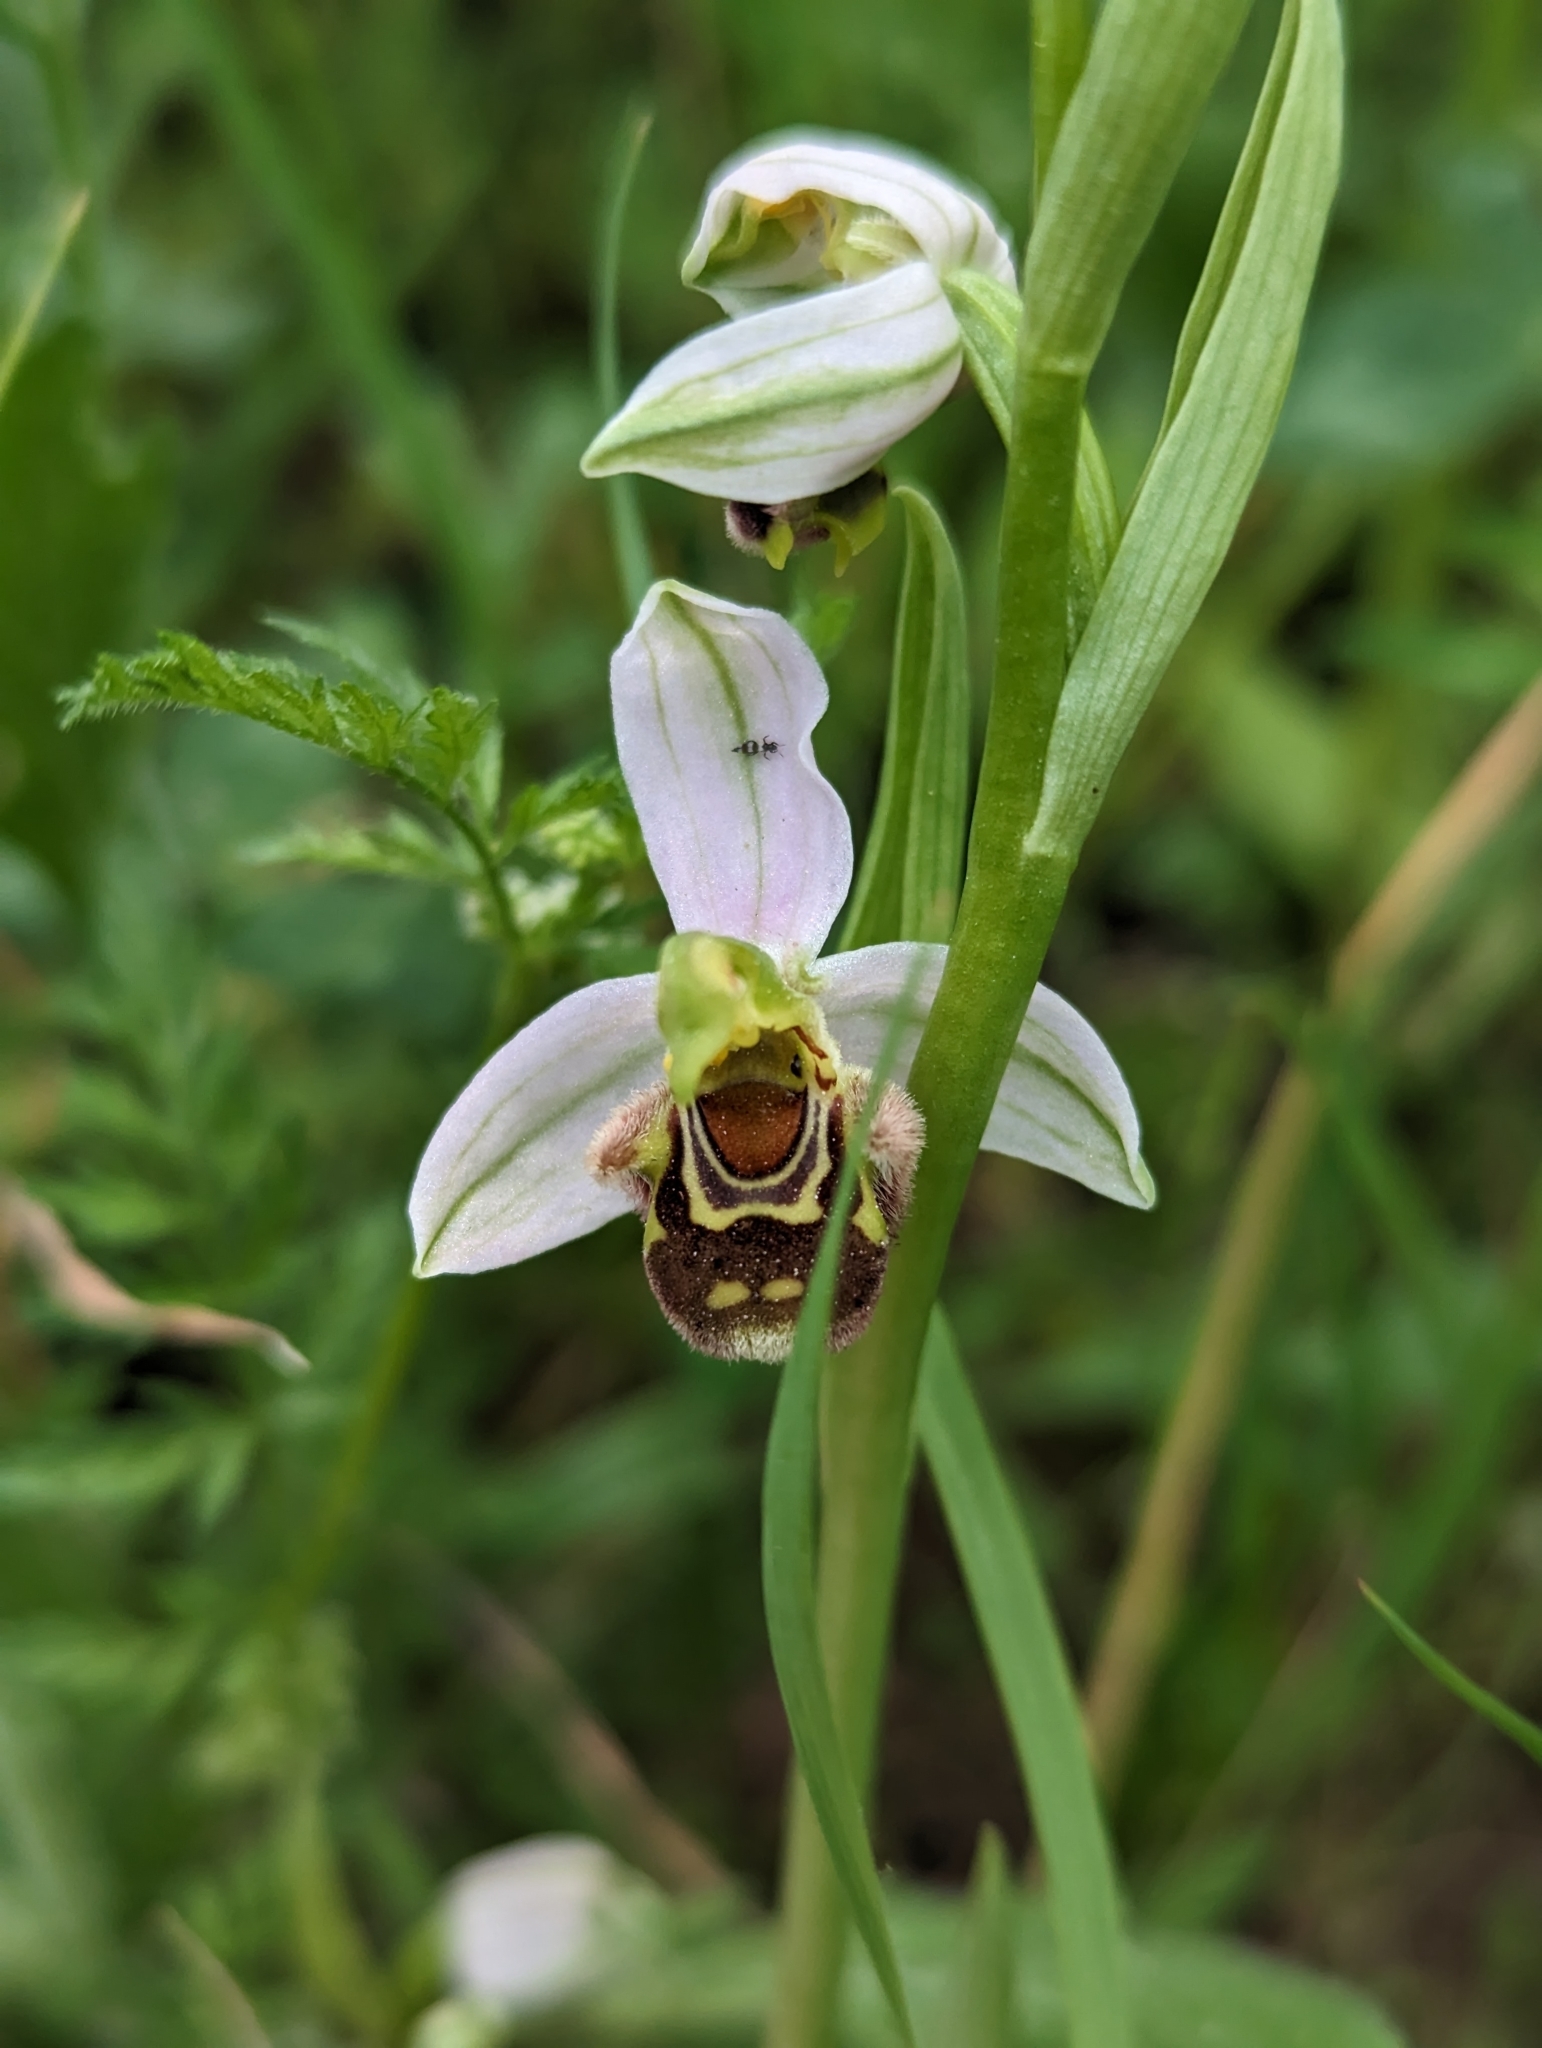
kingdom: Plantae
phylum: Tracheophyta
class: Liliopsida
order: Asparagales
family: Orchidaceae
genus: Ophrys
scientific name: Ophrys apifera
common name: Bee orchid
